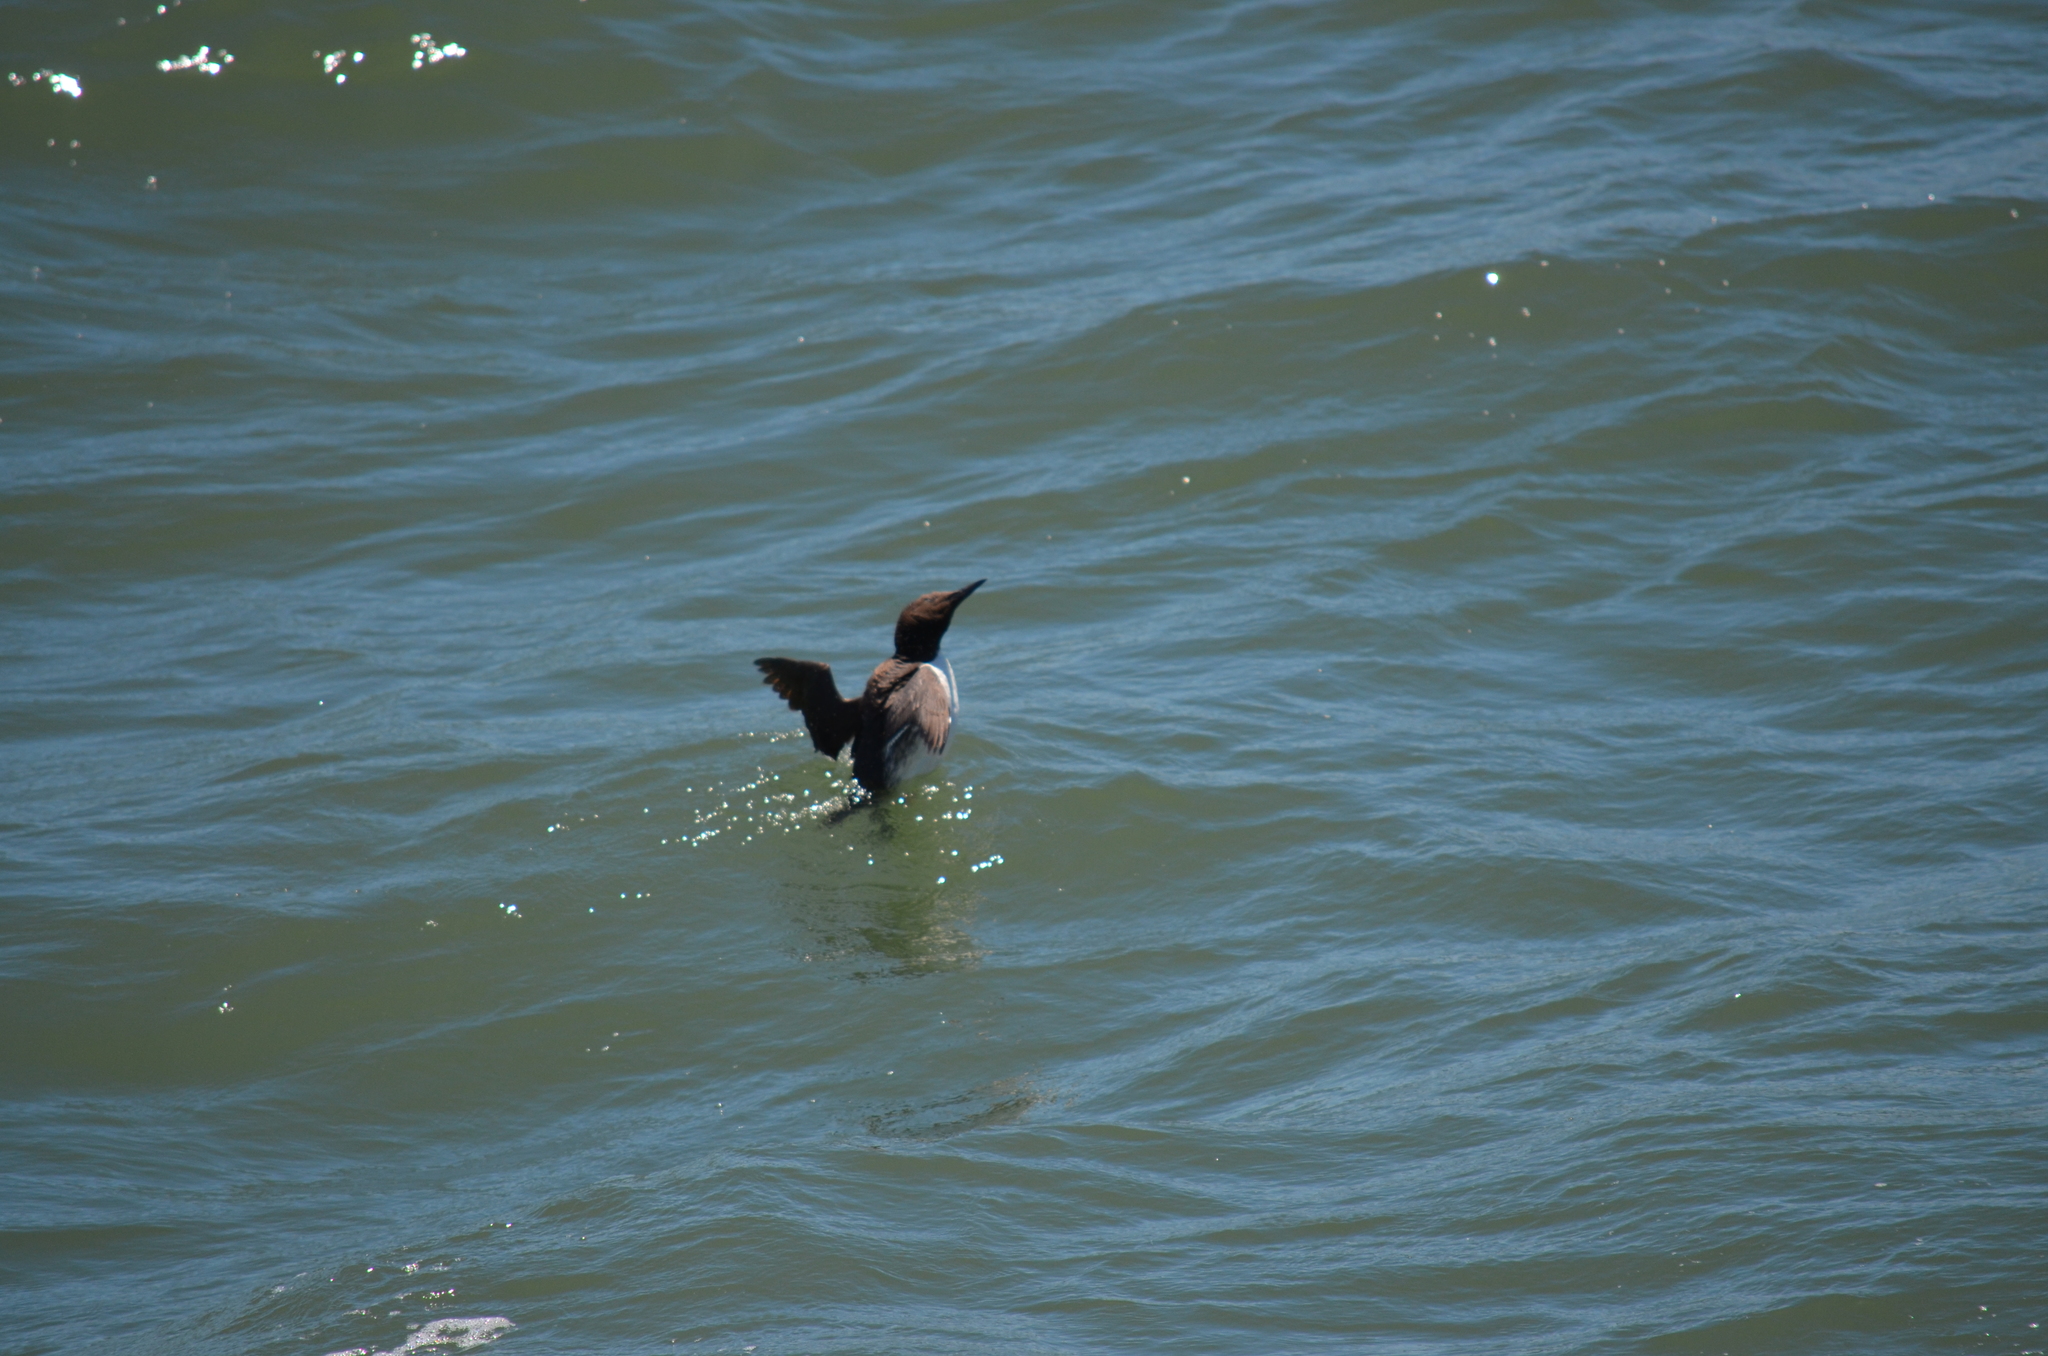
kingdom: Animalia
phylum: Chordata
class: Aves
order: Charadriiformes
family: Alcidae
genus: Uria
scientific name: Uria aalge
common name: Common murre
